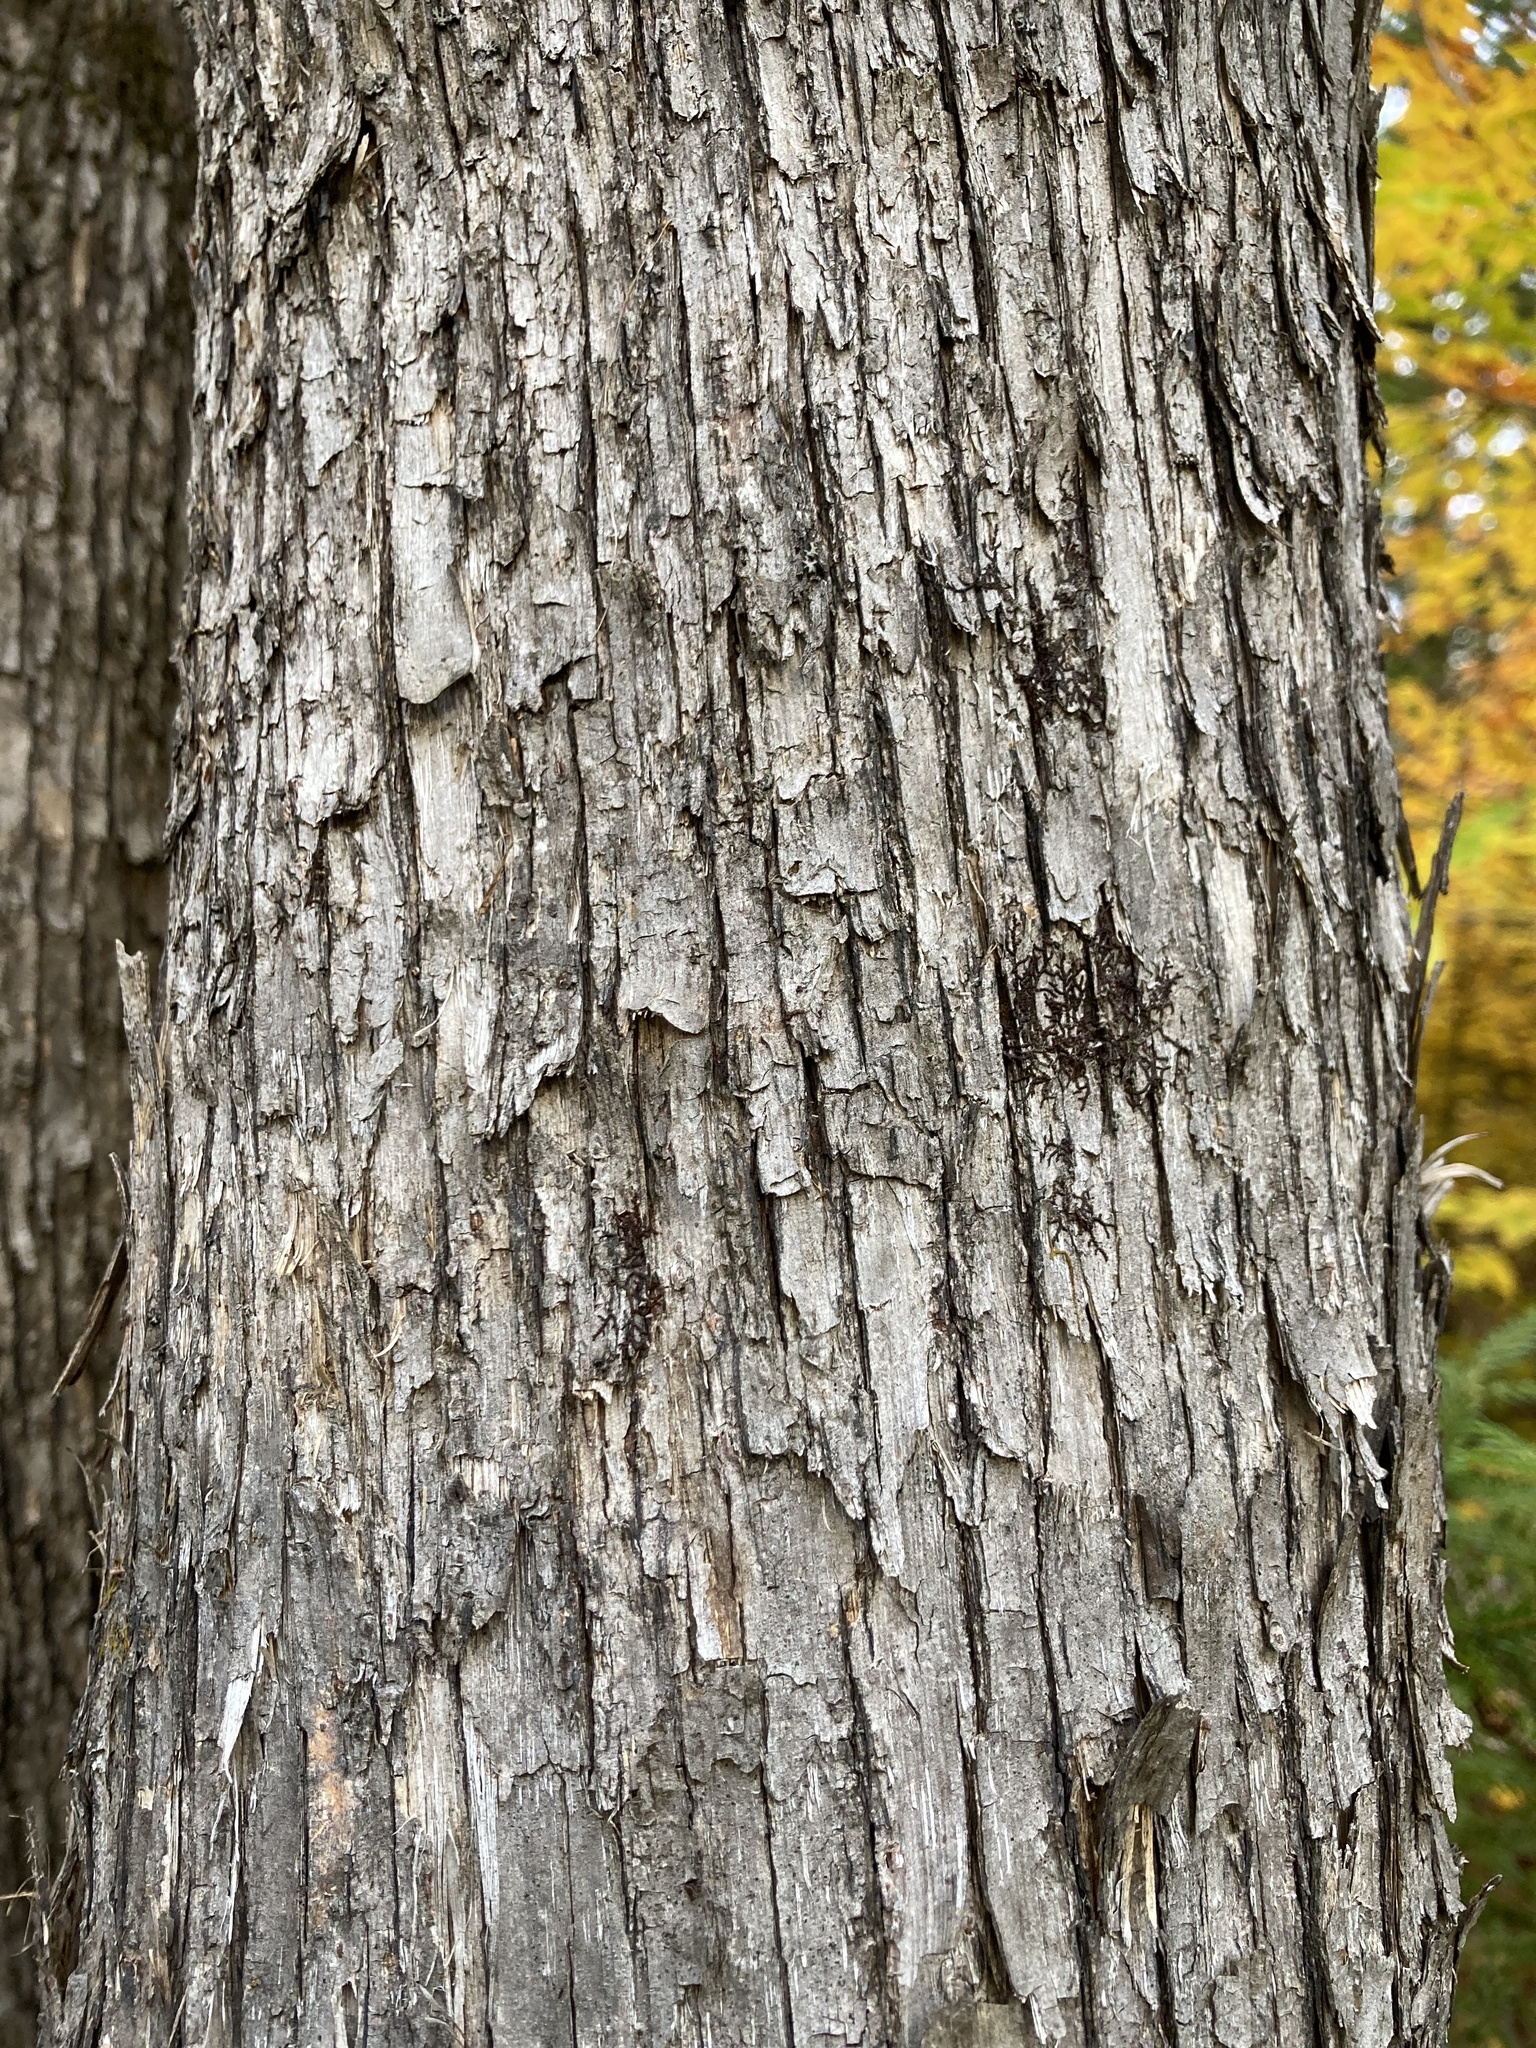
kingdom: Plantae
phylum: Tracheophyta
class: Magnoliopsida
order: Fagales
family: Betulaceae
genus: Ostrya
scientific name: Ostrya virginiana
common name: Ironwood
